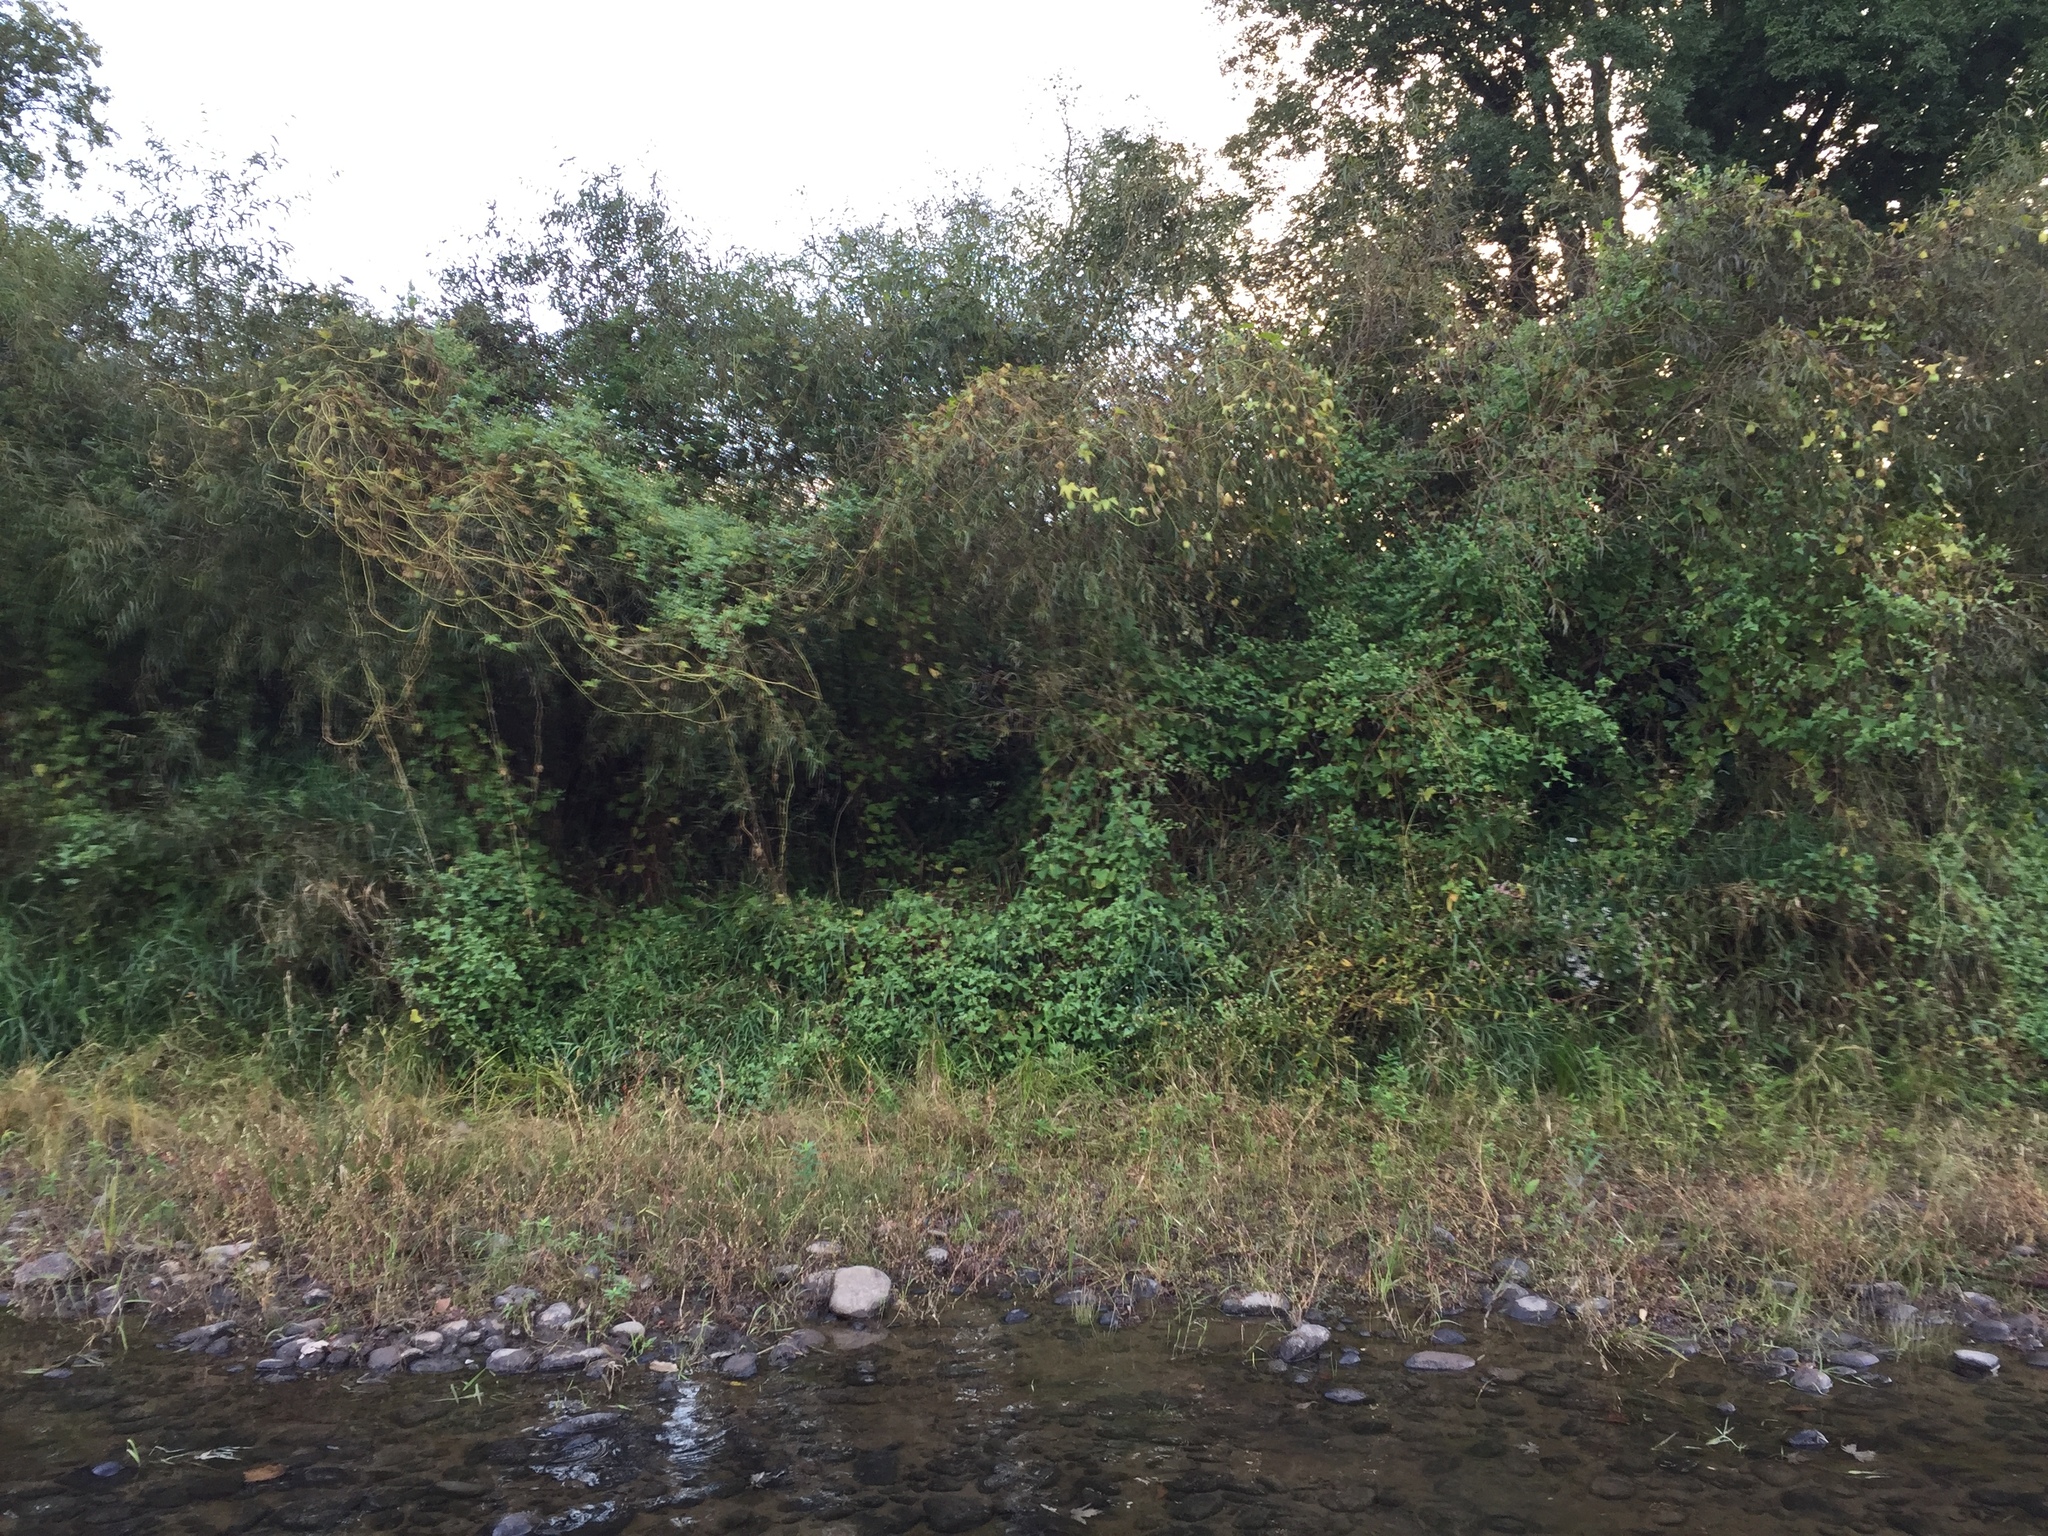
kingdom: Plantae
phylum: Tracheophyta
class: Magnoliopsida
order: Caryophyllales
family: Polygonaceae
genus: Persicaria
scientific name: Persicaria perfoliata
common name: Asiatic tearthumb
